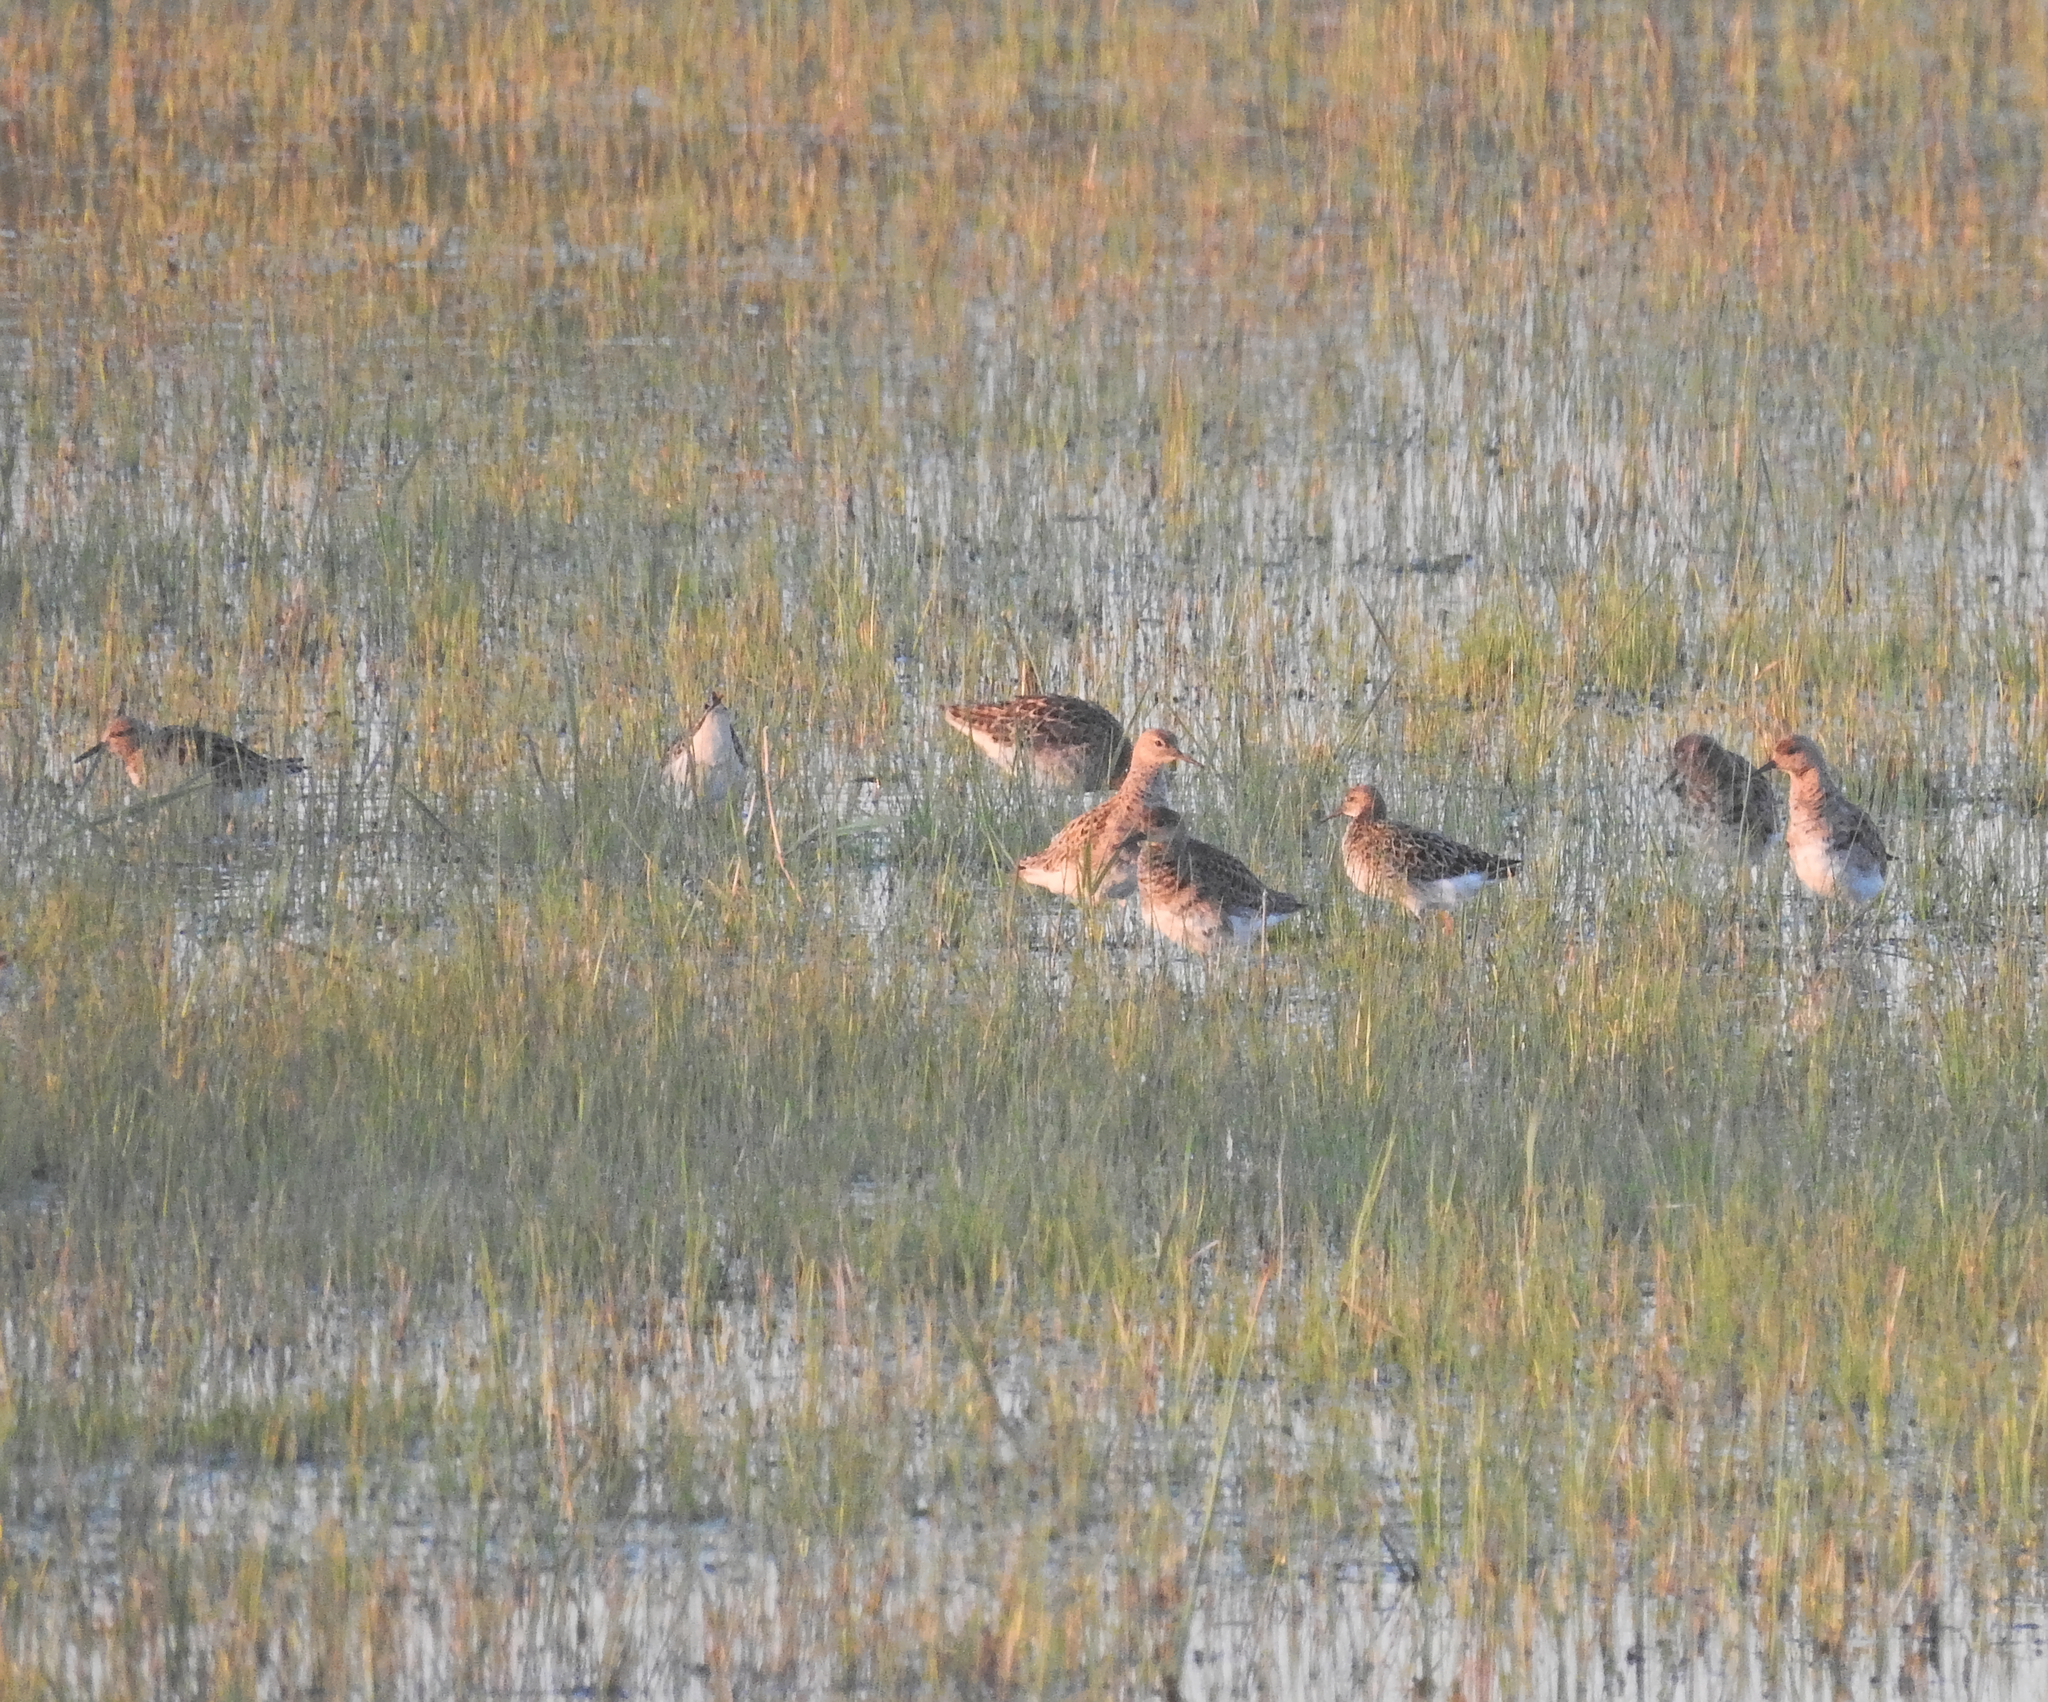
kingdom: Animalia
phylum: Chordata
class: Aves
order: Charadriiformes
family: Scolopacidae
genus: Calidris
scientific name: Calidris pugnax
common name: Ruff
